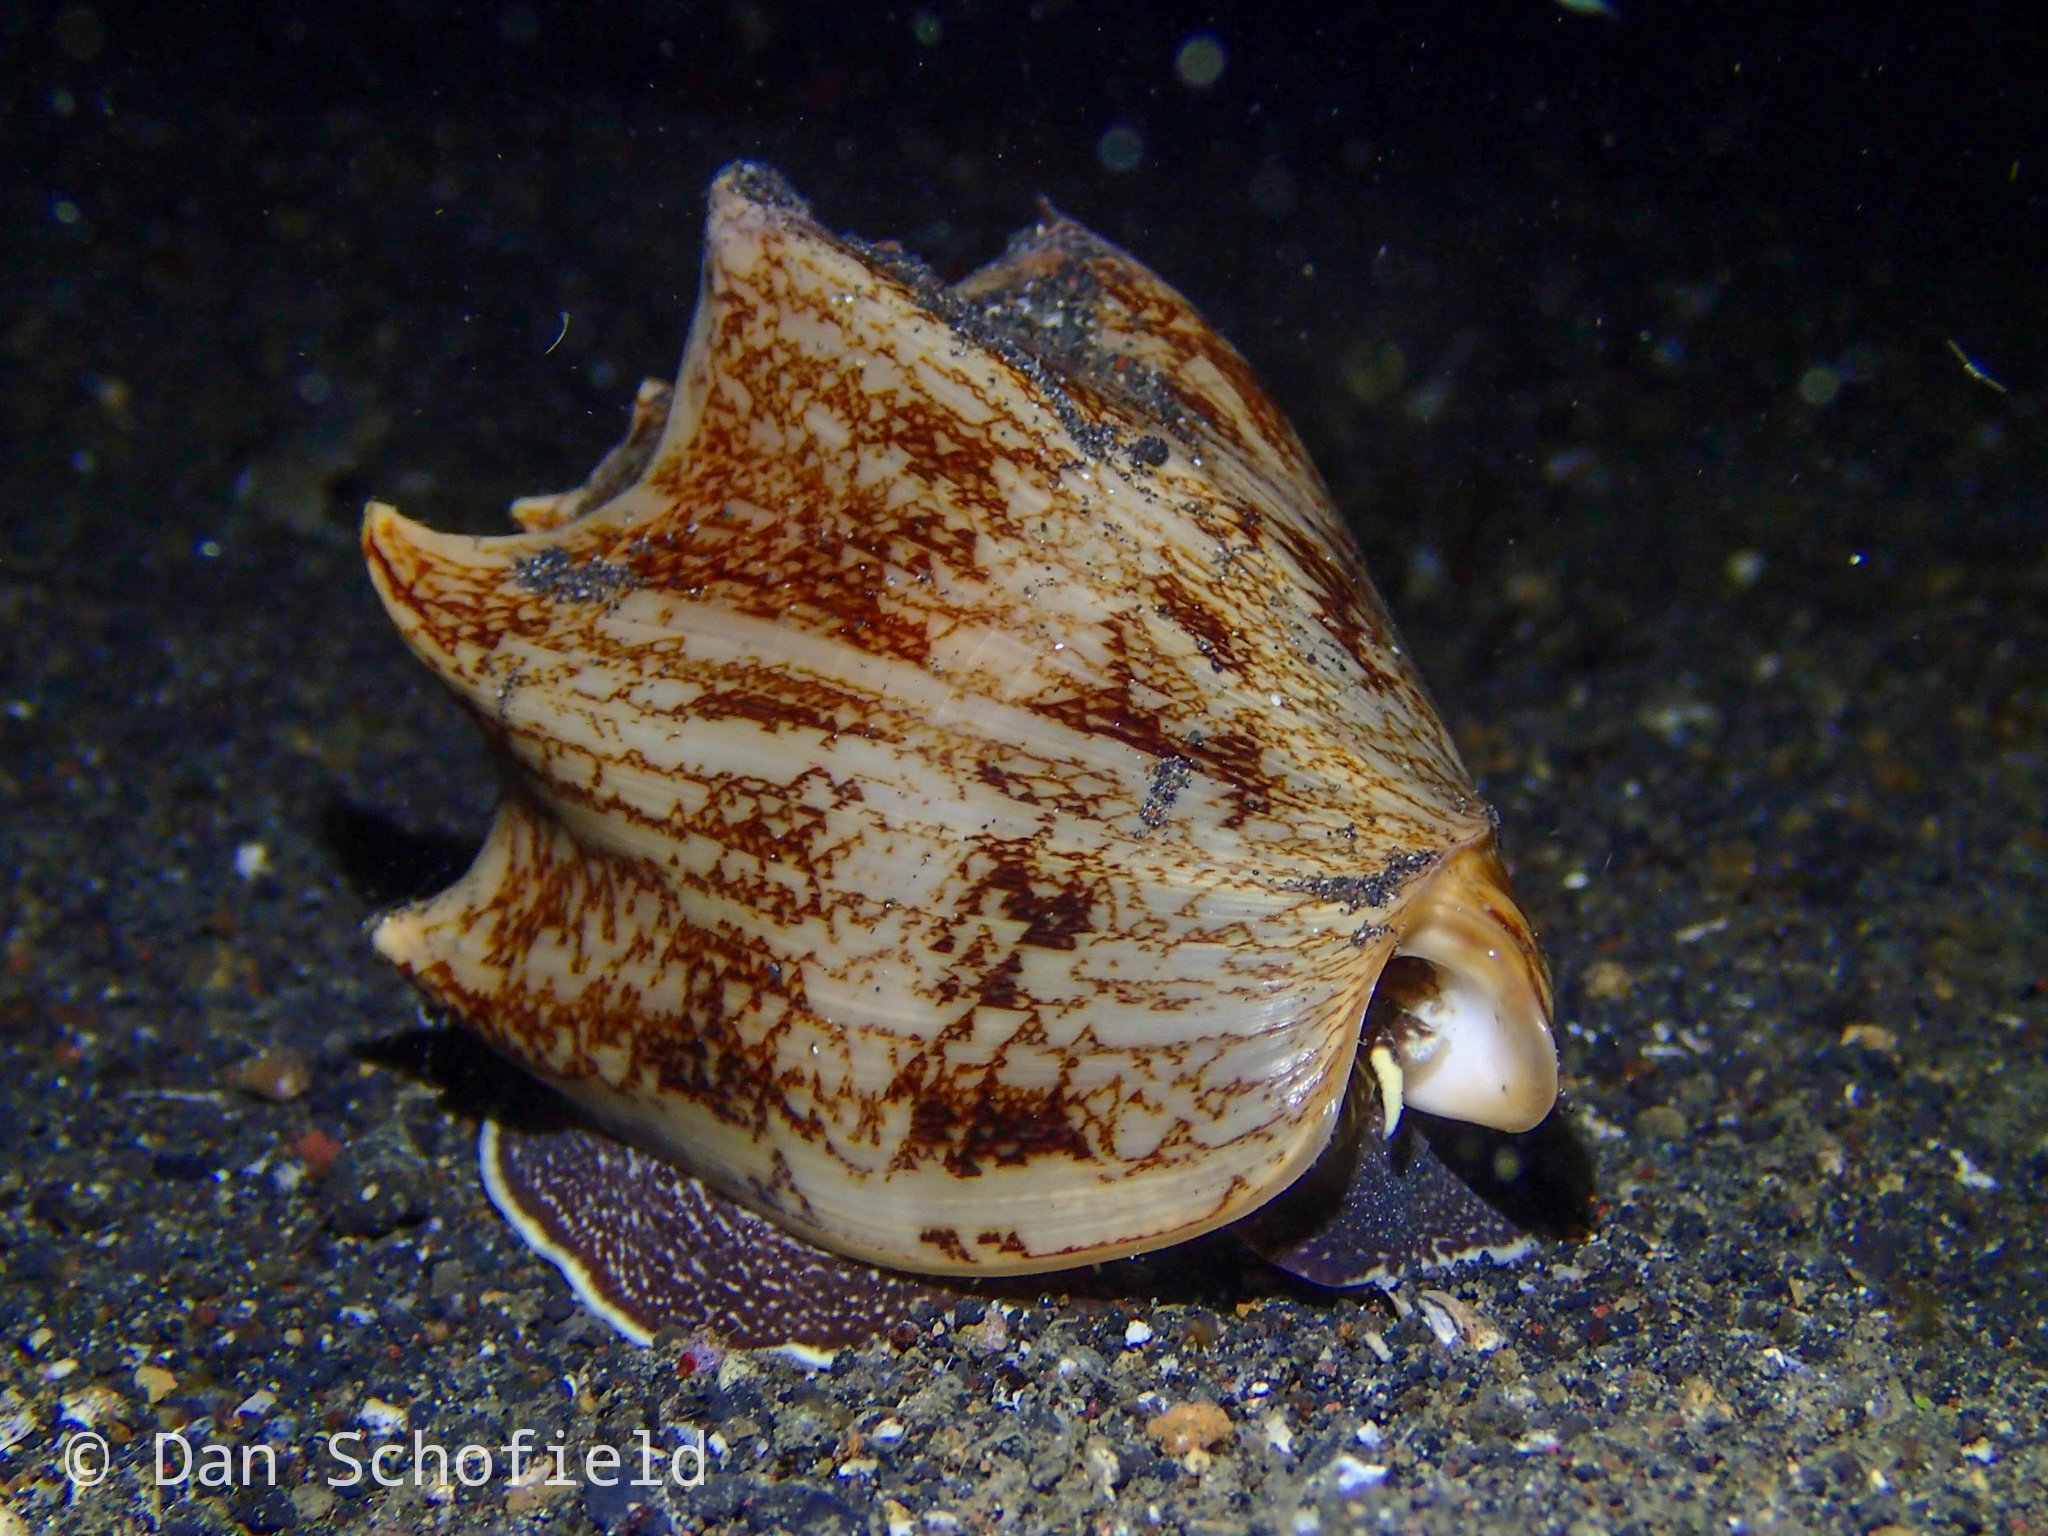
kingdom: Animalia
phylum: Mollusca
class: Gastropoda
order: Neogastropoda
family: Volutidae
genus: Cymbiola
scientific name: Cymbiola vespertilio
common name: Bat volute
